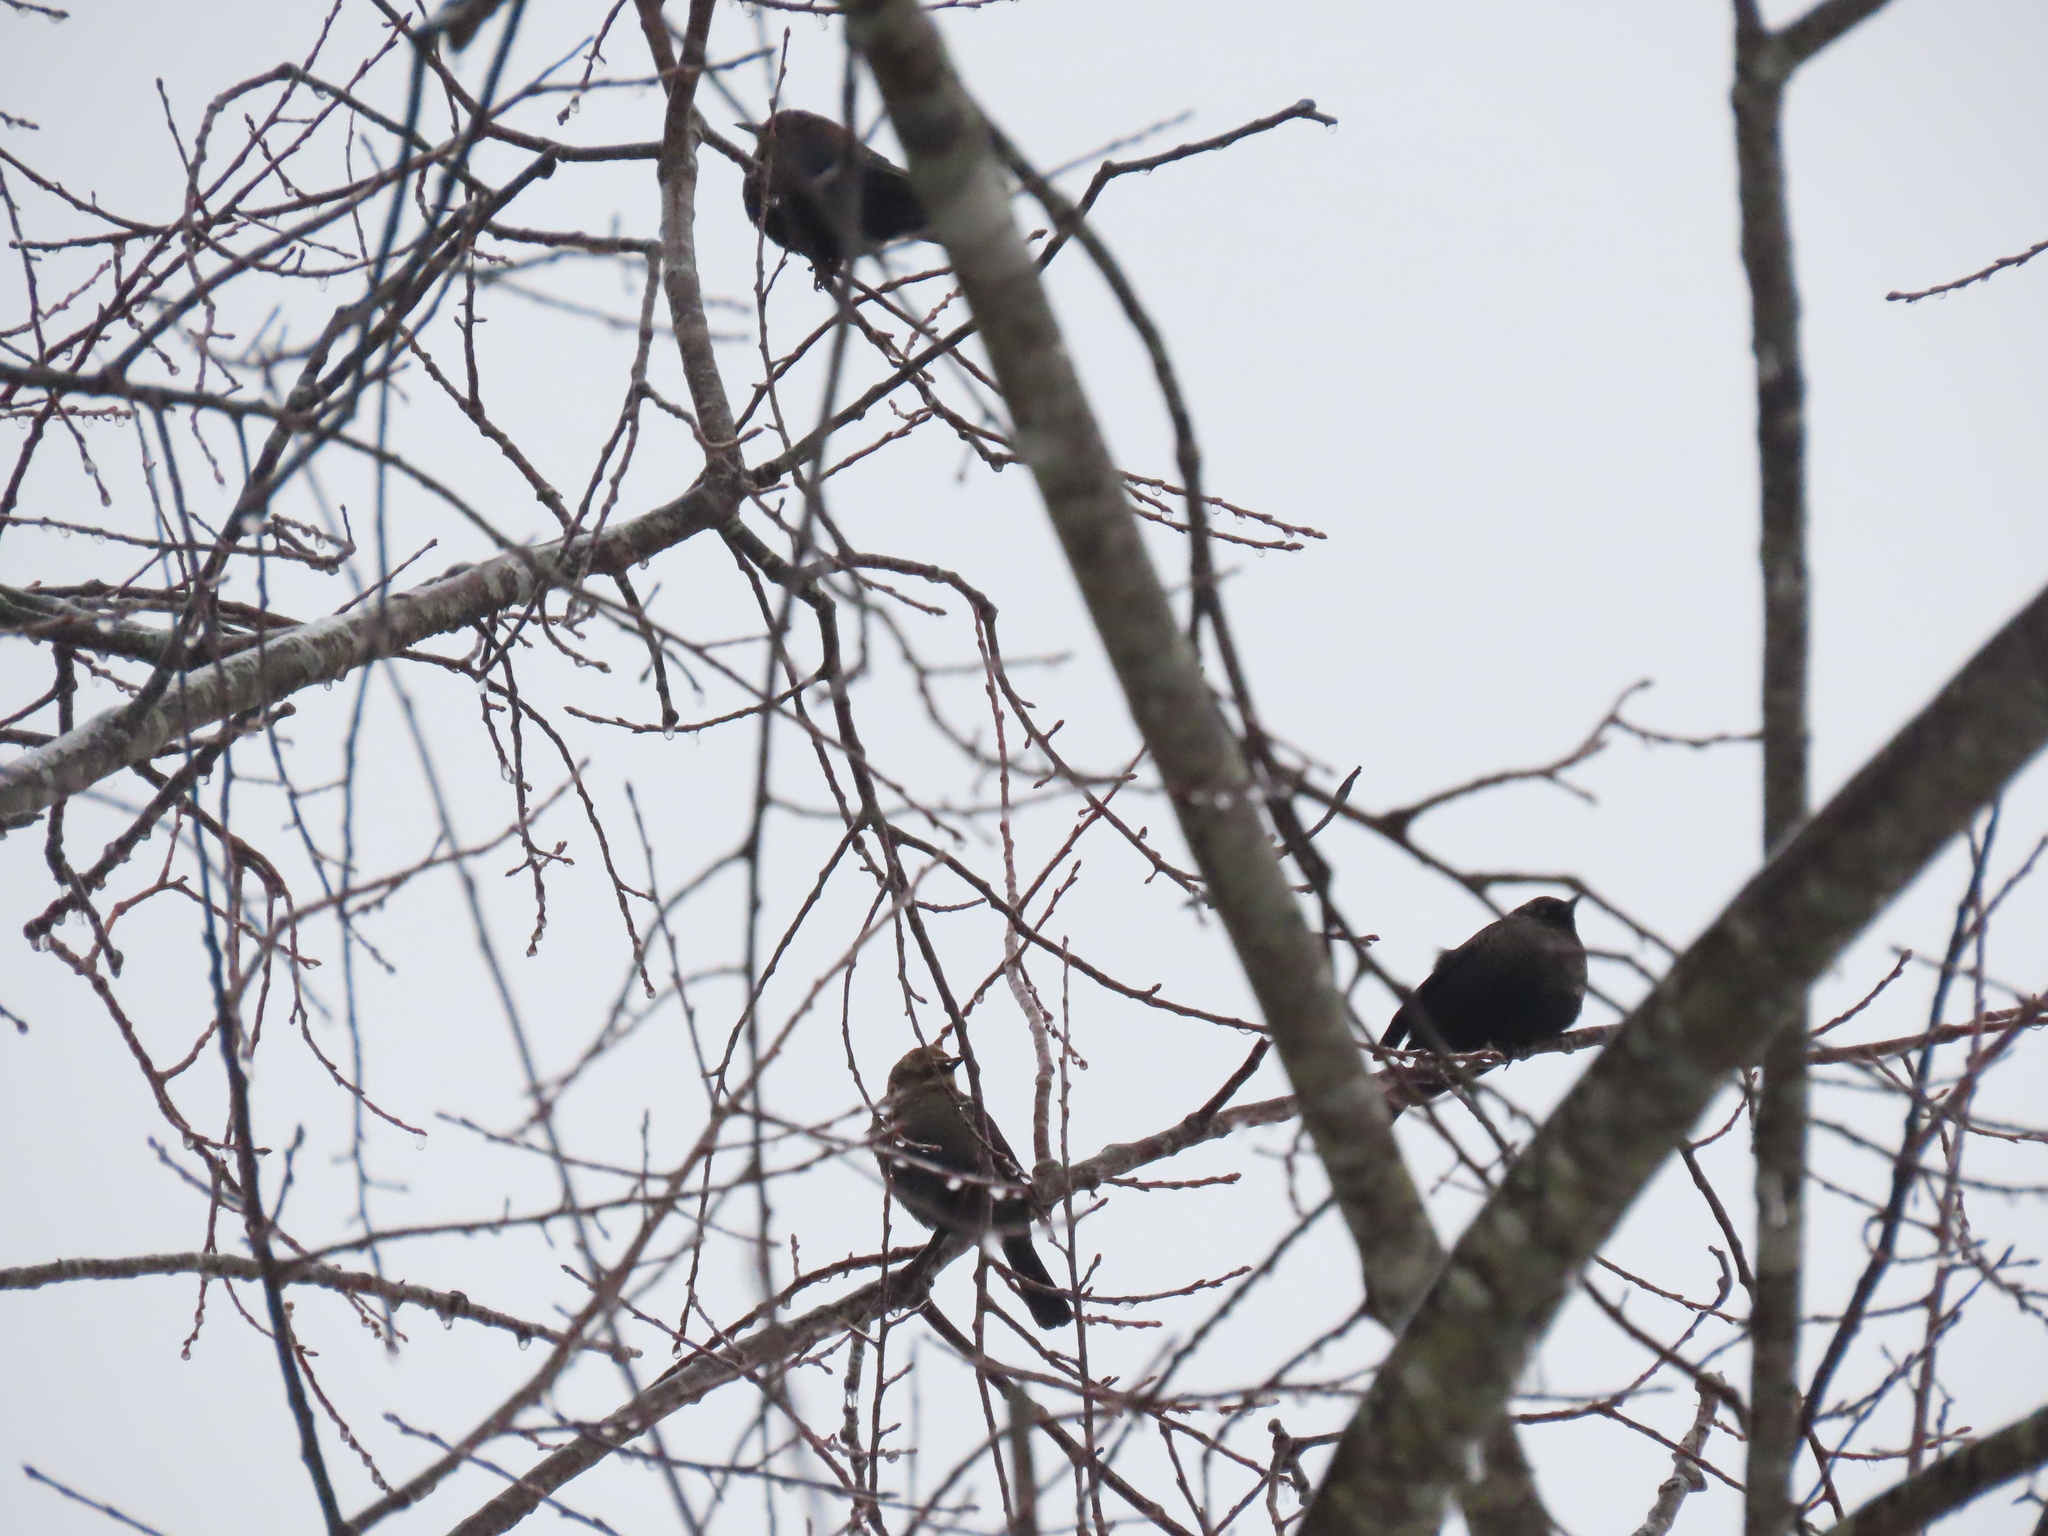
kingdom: Animalia
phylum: Chordata
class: Aves
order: Passeriformes
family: Icteridae
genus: Euphagus
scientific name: Euphagus carolinus
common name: Rusty blackbird
